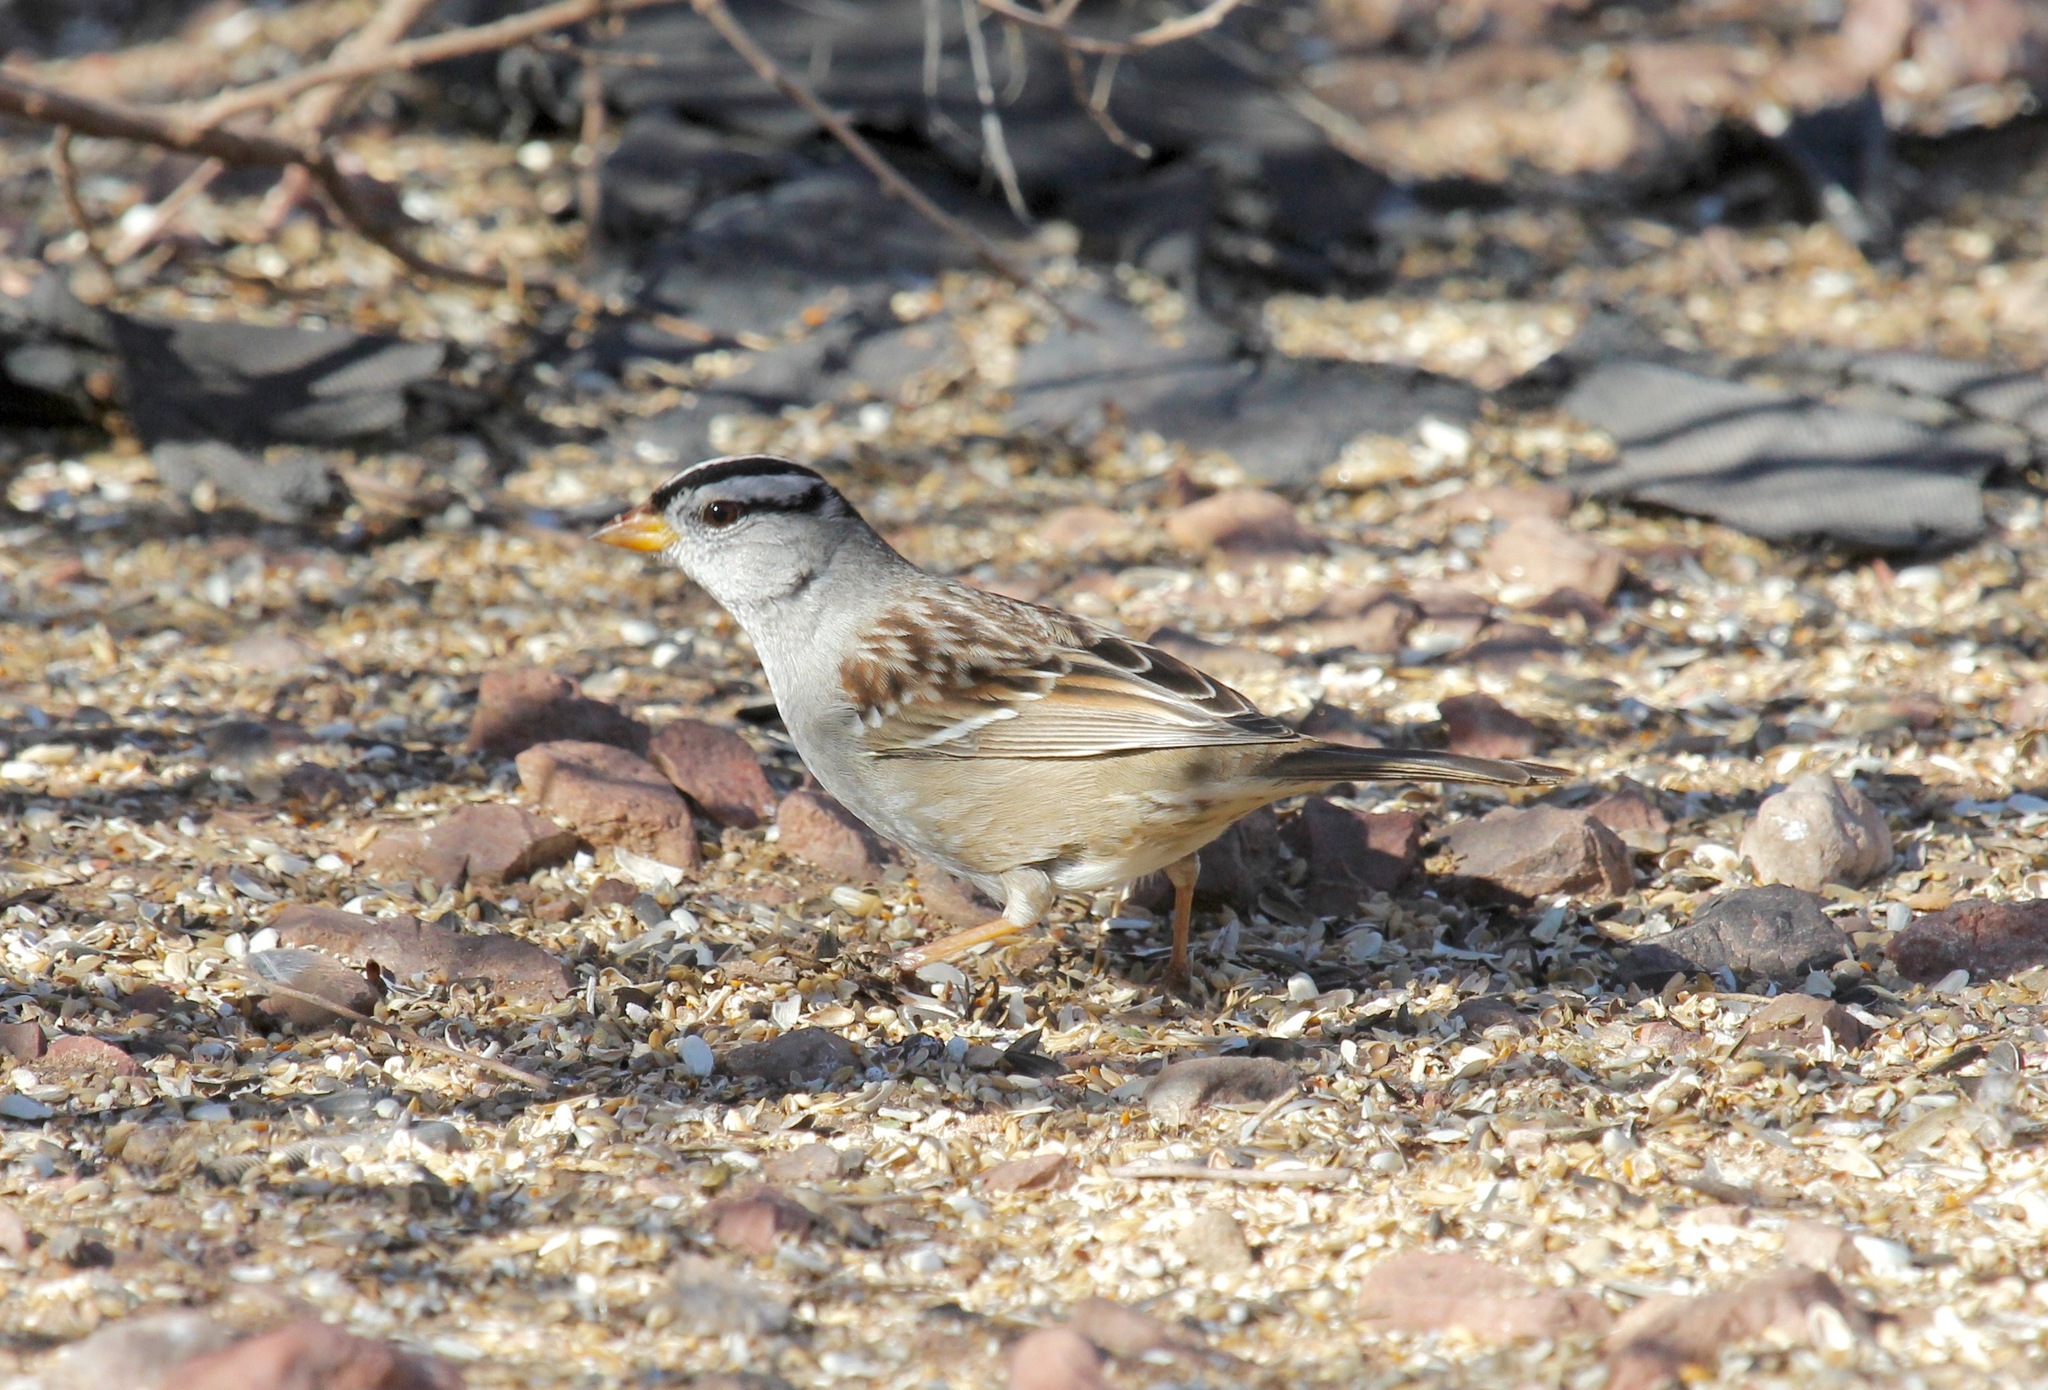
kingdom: Animalia
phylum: Chordata
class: Aves
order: Passeriformes
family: Passerellidae
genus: Zonotrichia
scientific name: Zonotrichia leucophrys
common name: White-crowned sparrow
